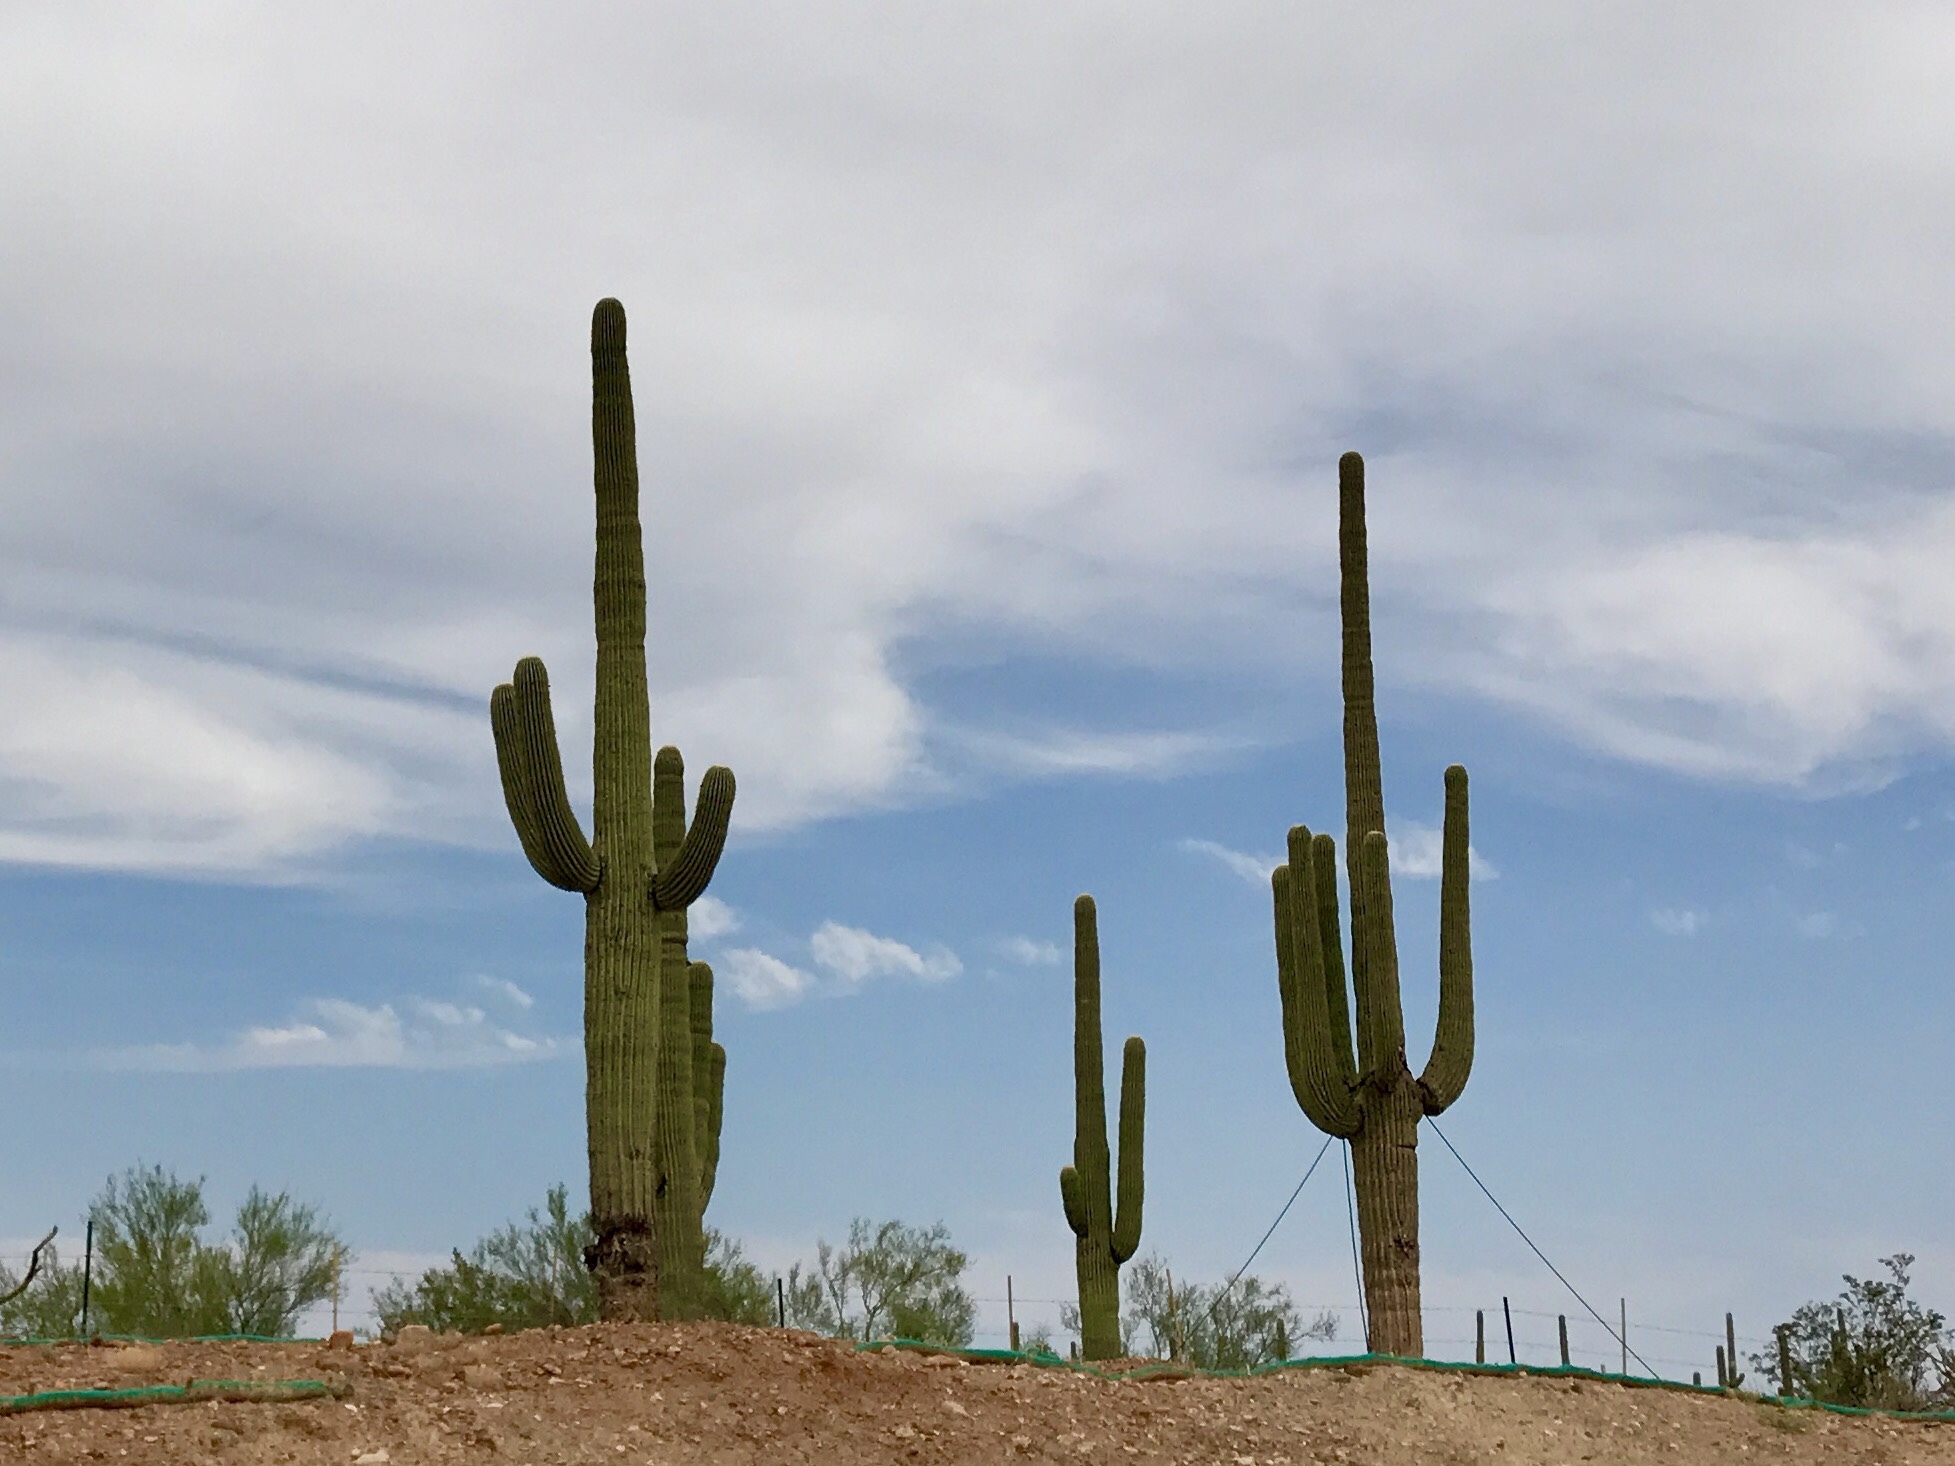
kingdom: Plantae
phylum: Tracheophyta
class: Magnoliopsida
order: Caryophyllales
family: Cactaceae
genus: Carnegiea
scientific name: Carnegiea gigantea
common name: Saguaro
